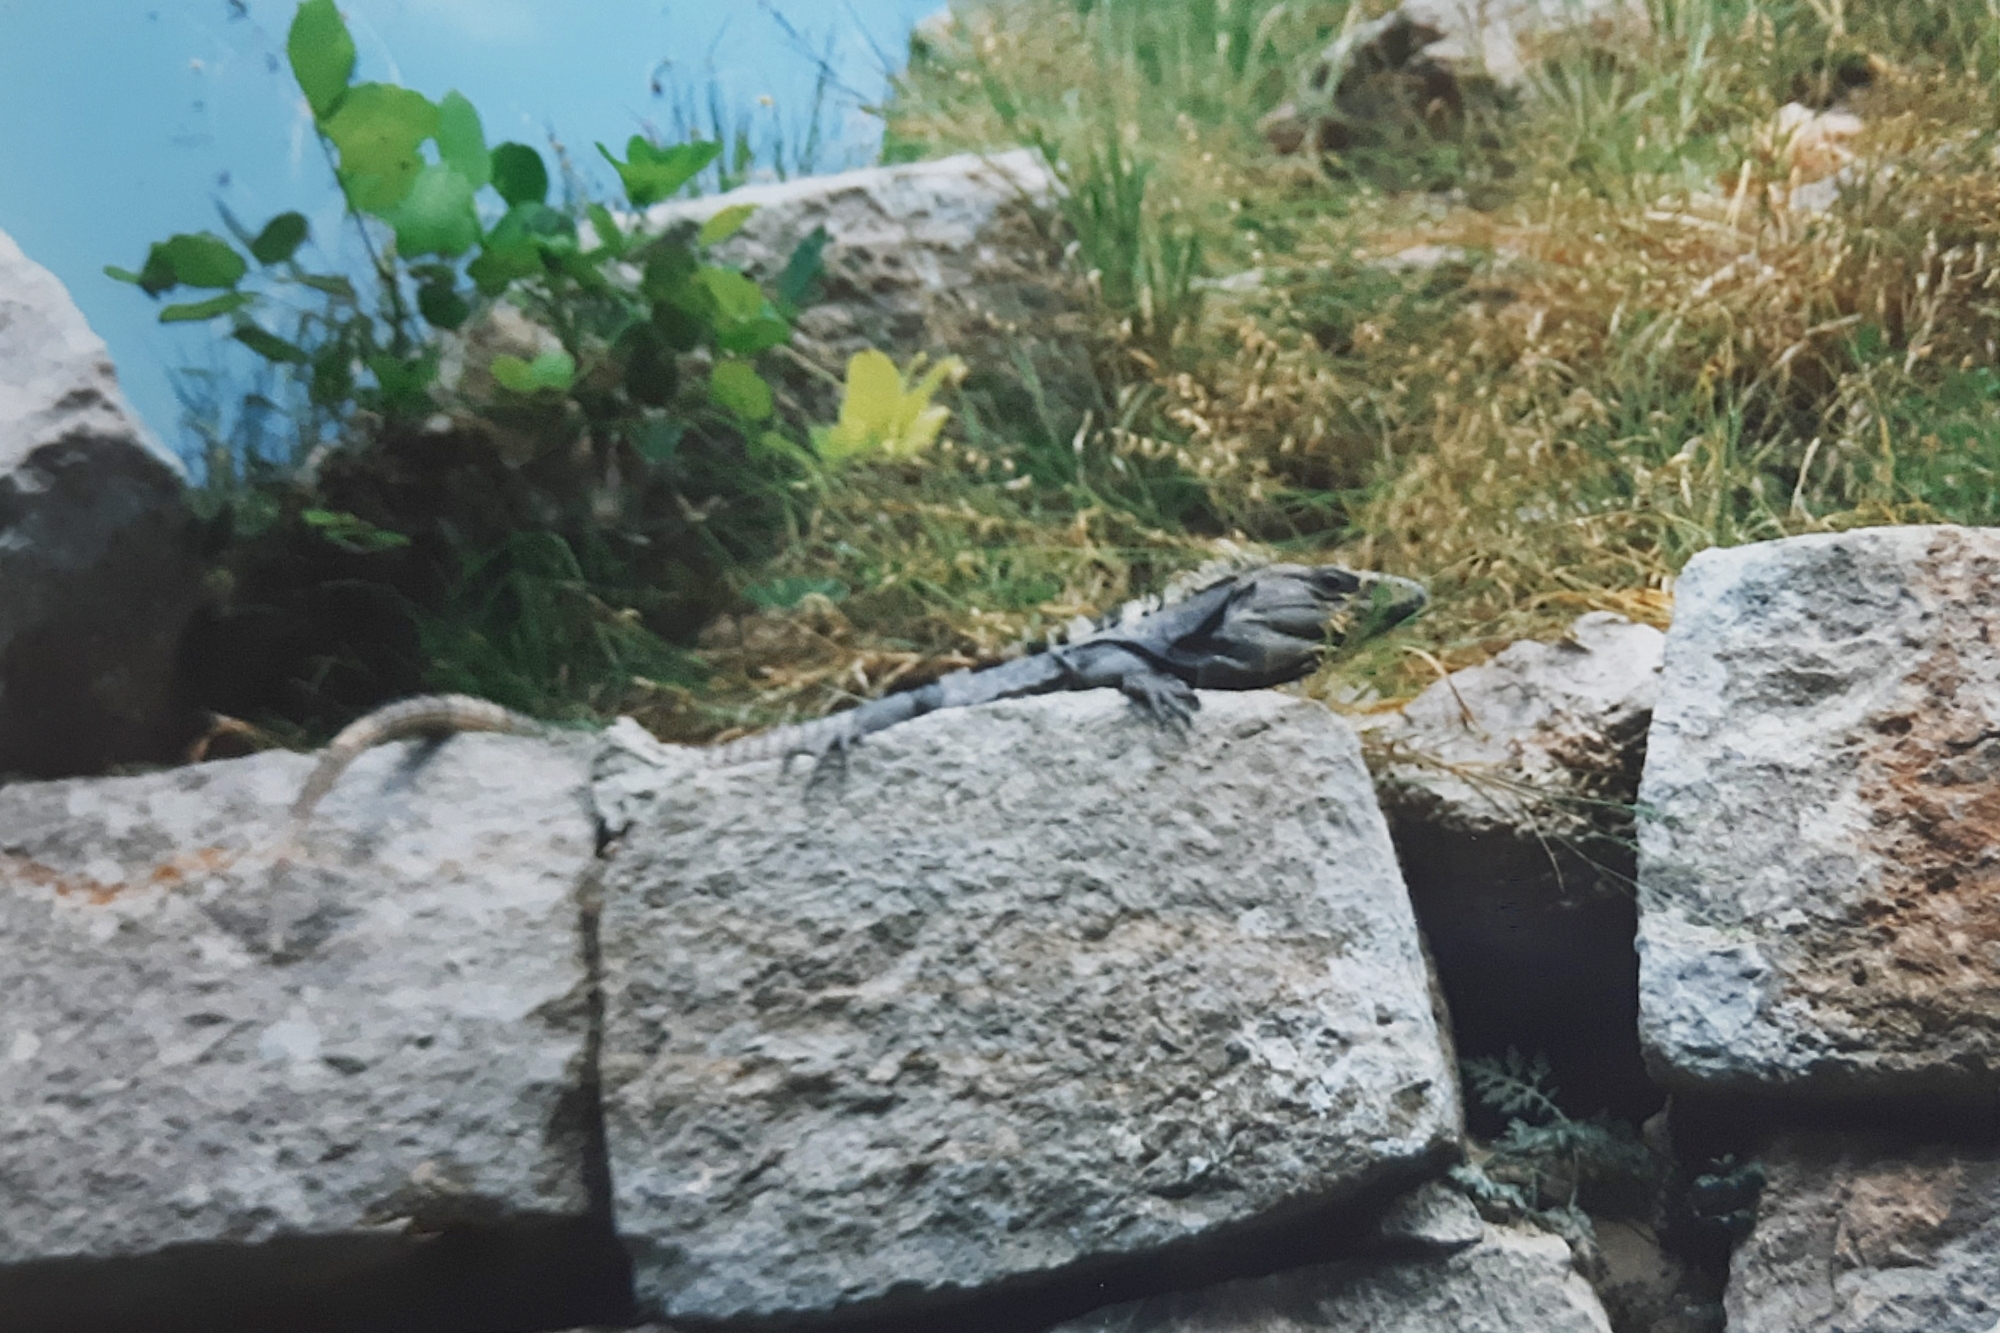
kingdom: Animalia
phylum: Chordata
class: Squamata
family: Iguanidae
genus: Ctenosaura
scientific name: Ctenosaura similis
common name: Black spiny-tailed iguana
